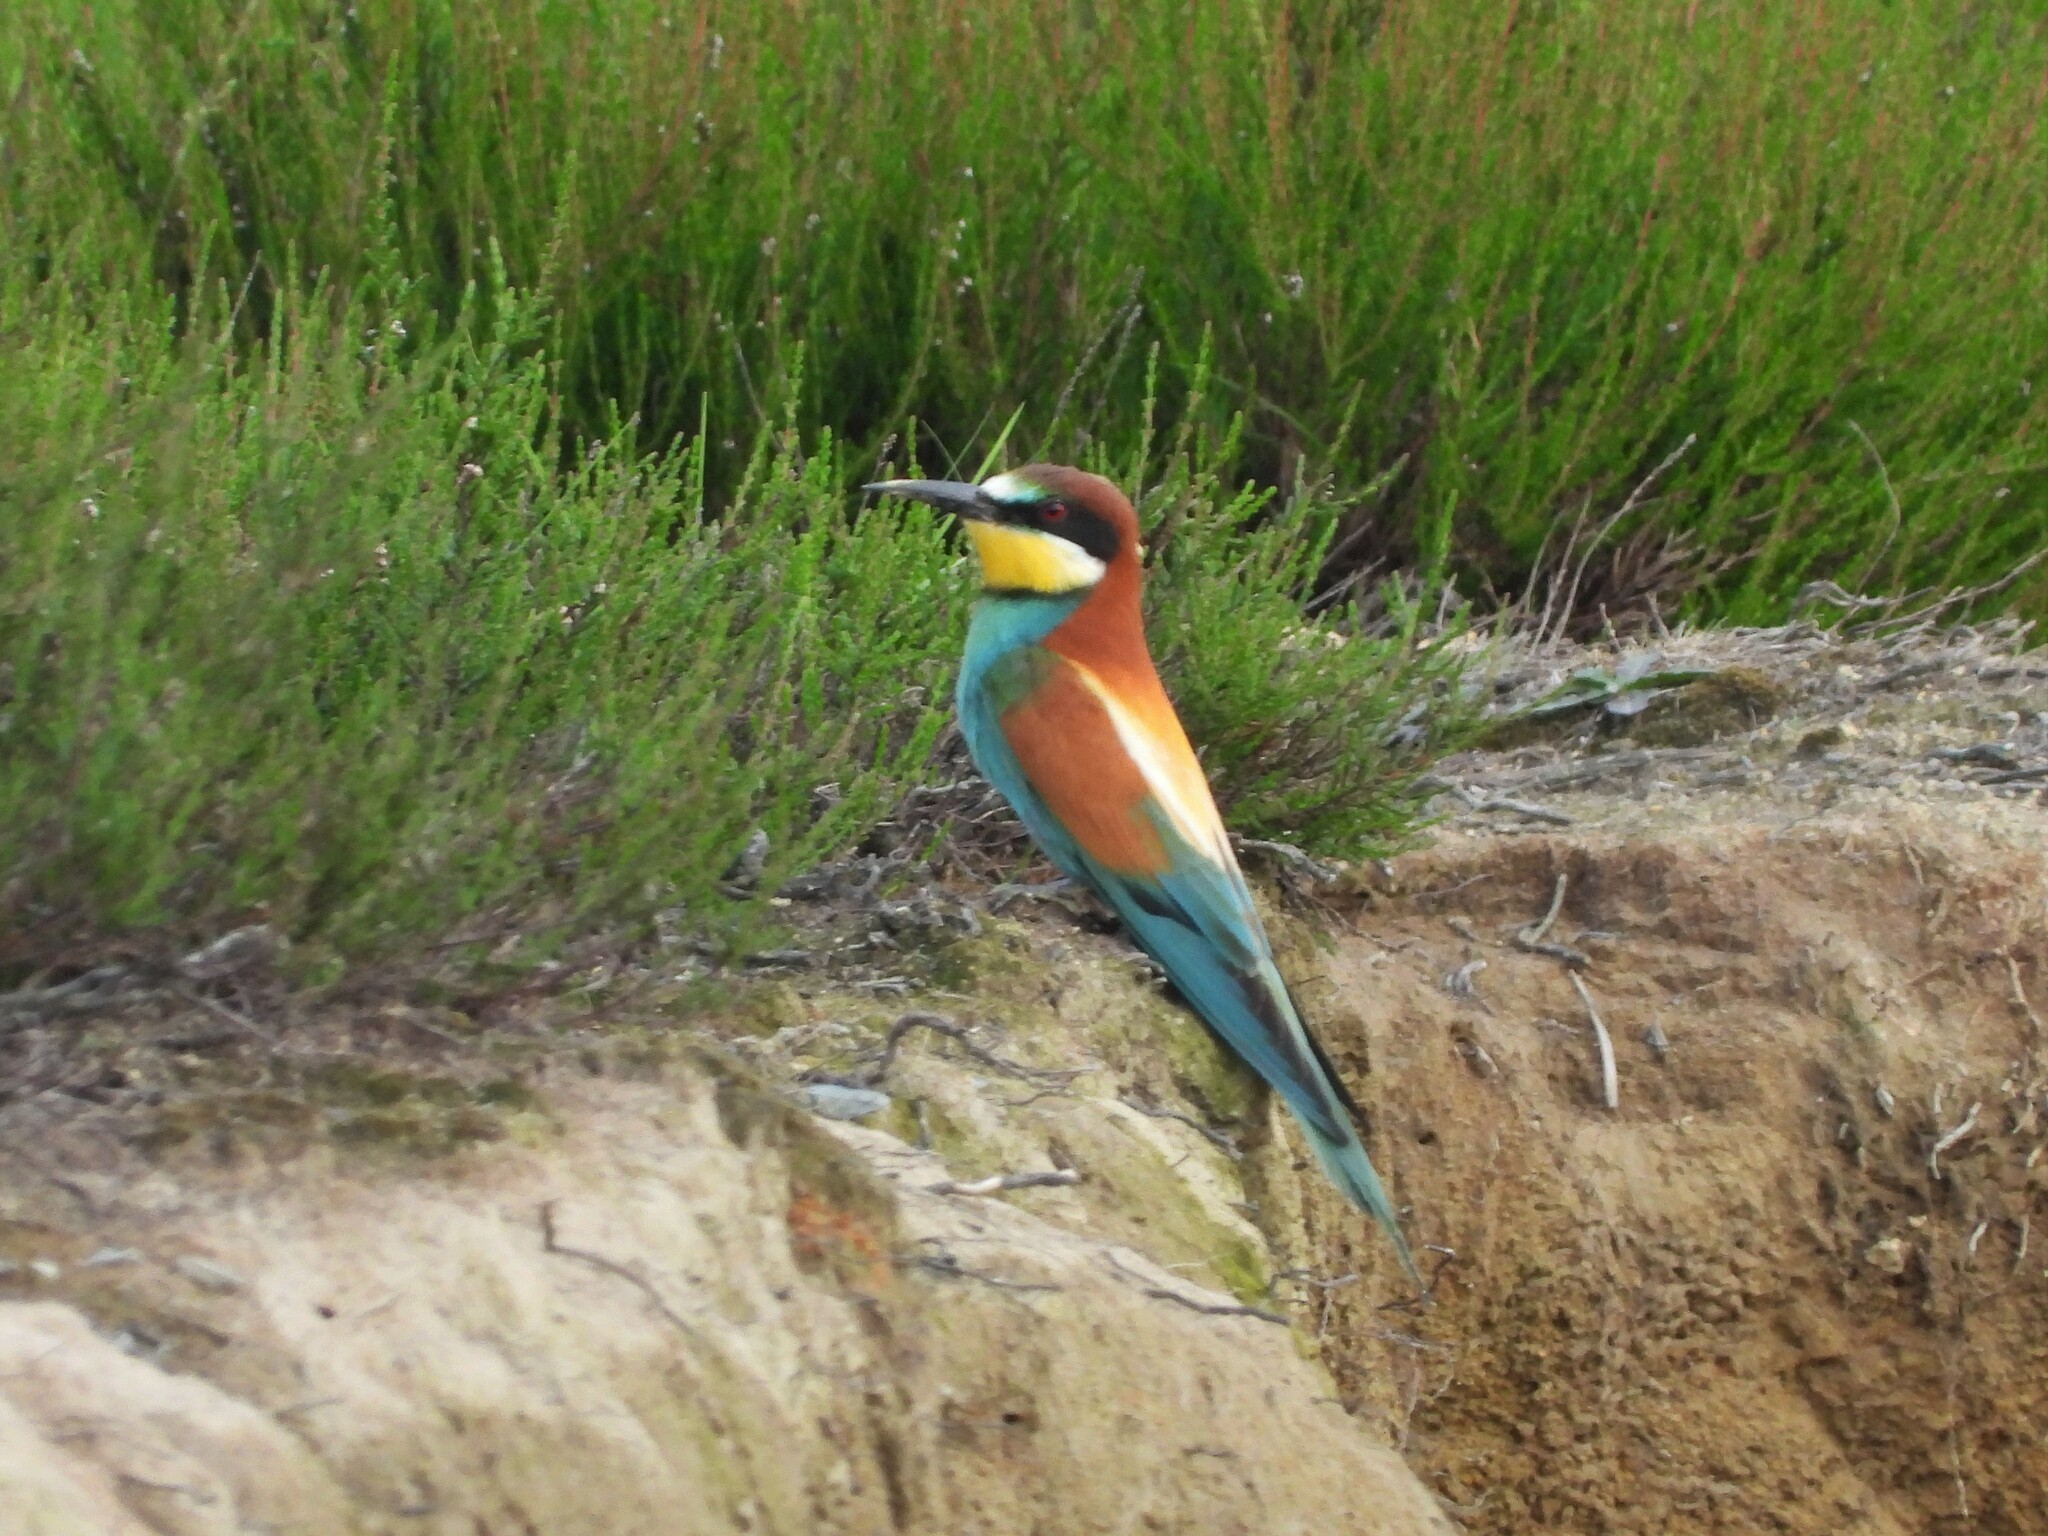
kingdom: Animalia
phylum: Chordata
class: Aves
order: Coraciiformes
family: Meropidae
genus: Merops
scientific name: Merops apiaster
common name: European bee-eater
